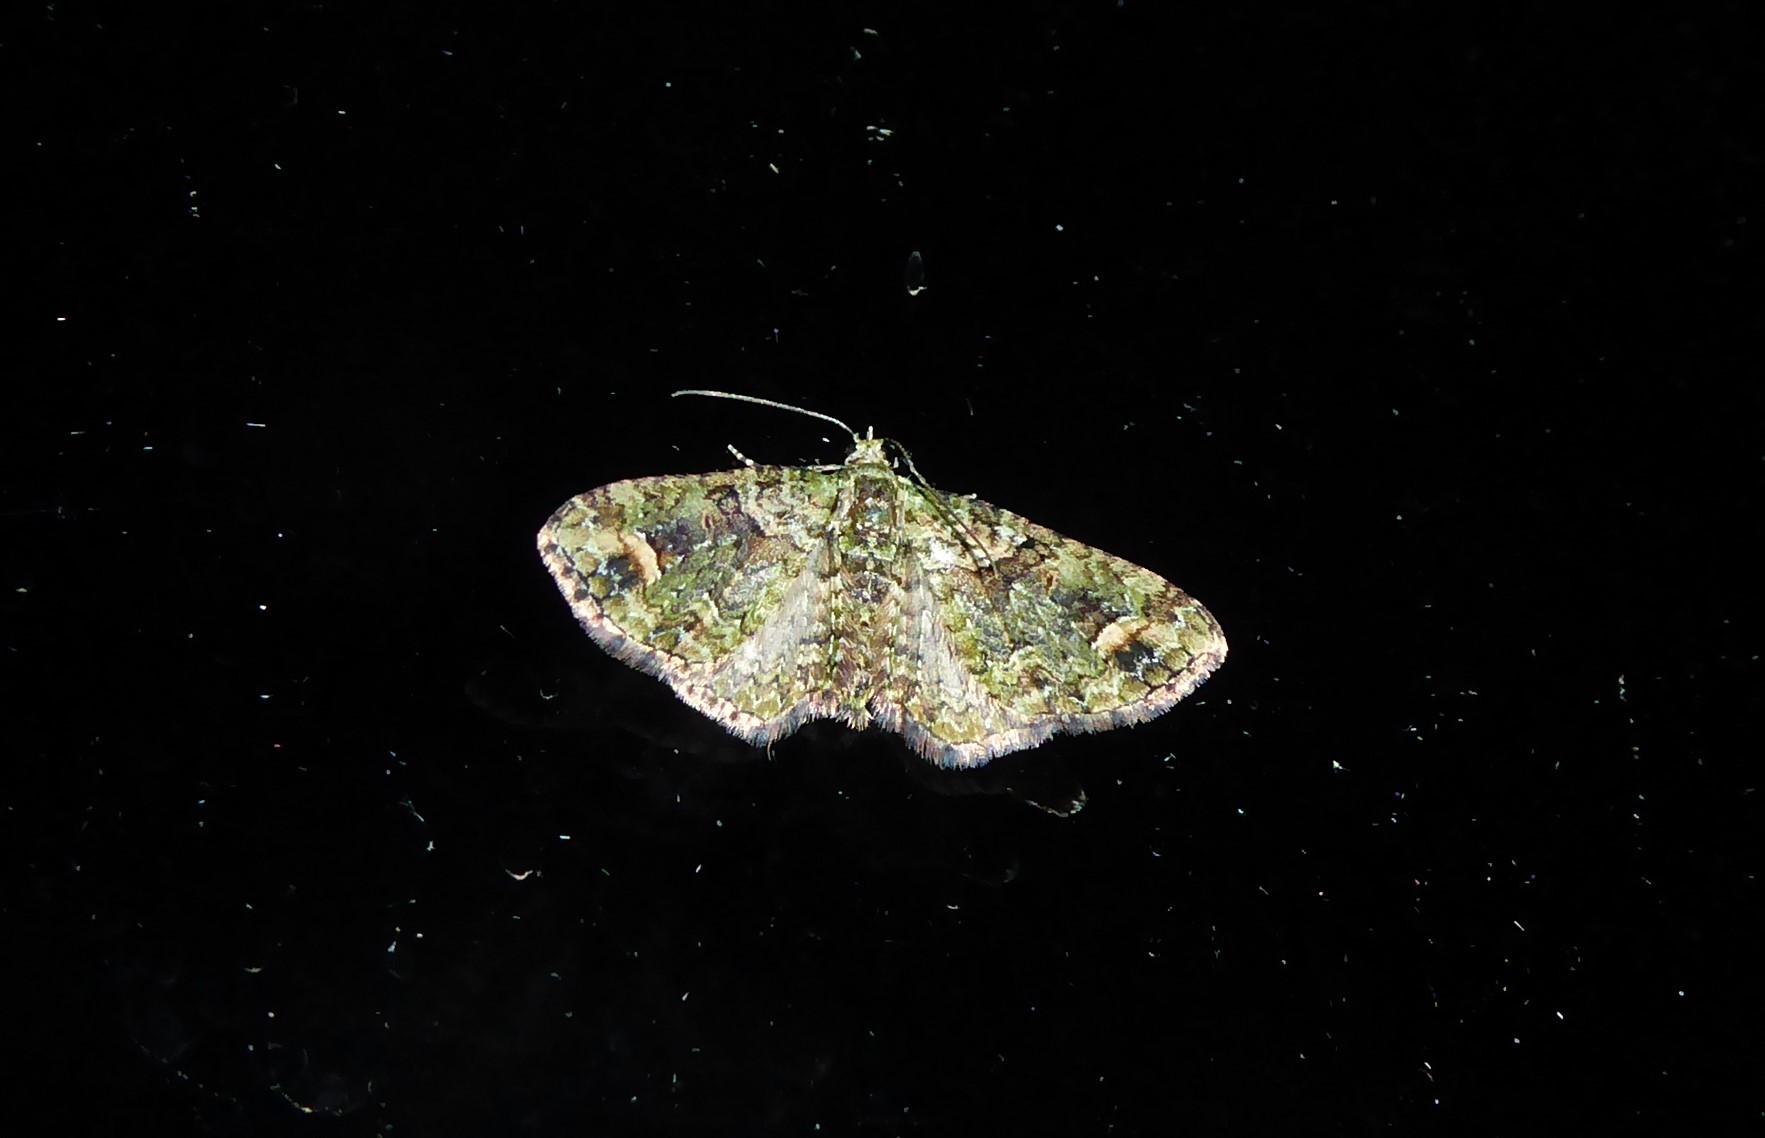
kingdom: Animalia
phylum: Arthropoda
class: Insecta
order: Lepidoptera
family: Geometridae
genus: Idaea
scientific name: Idaea mutanda
